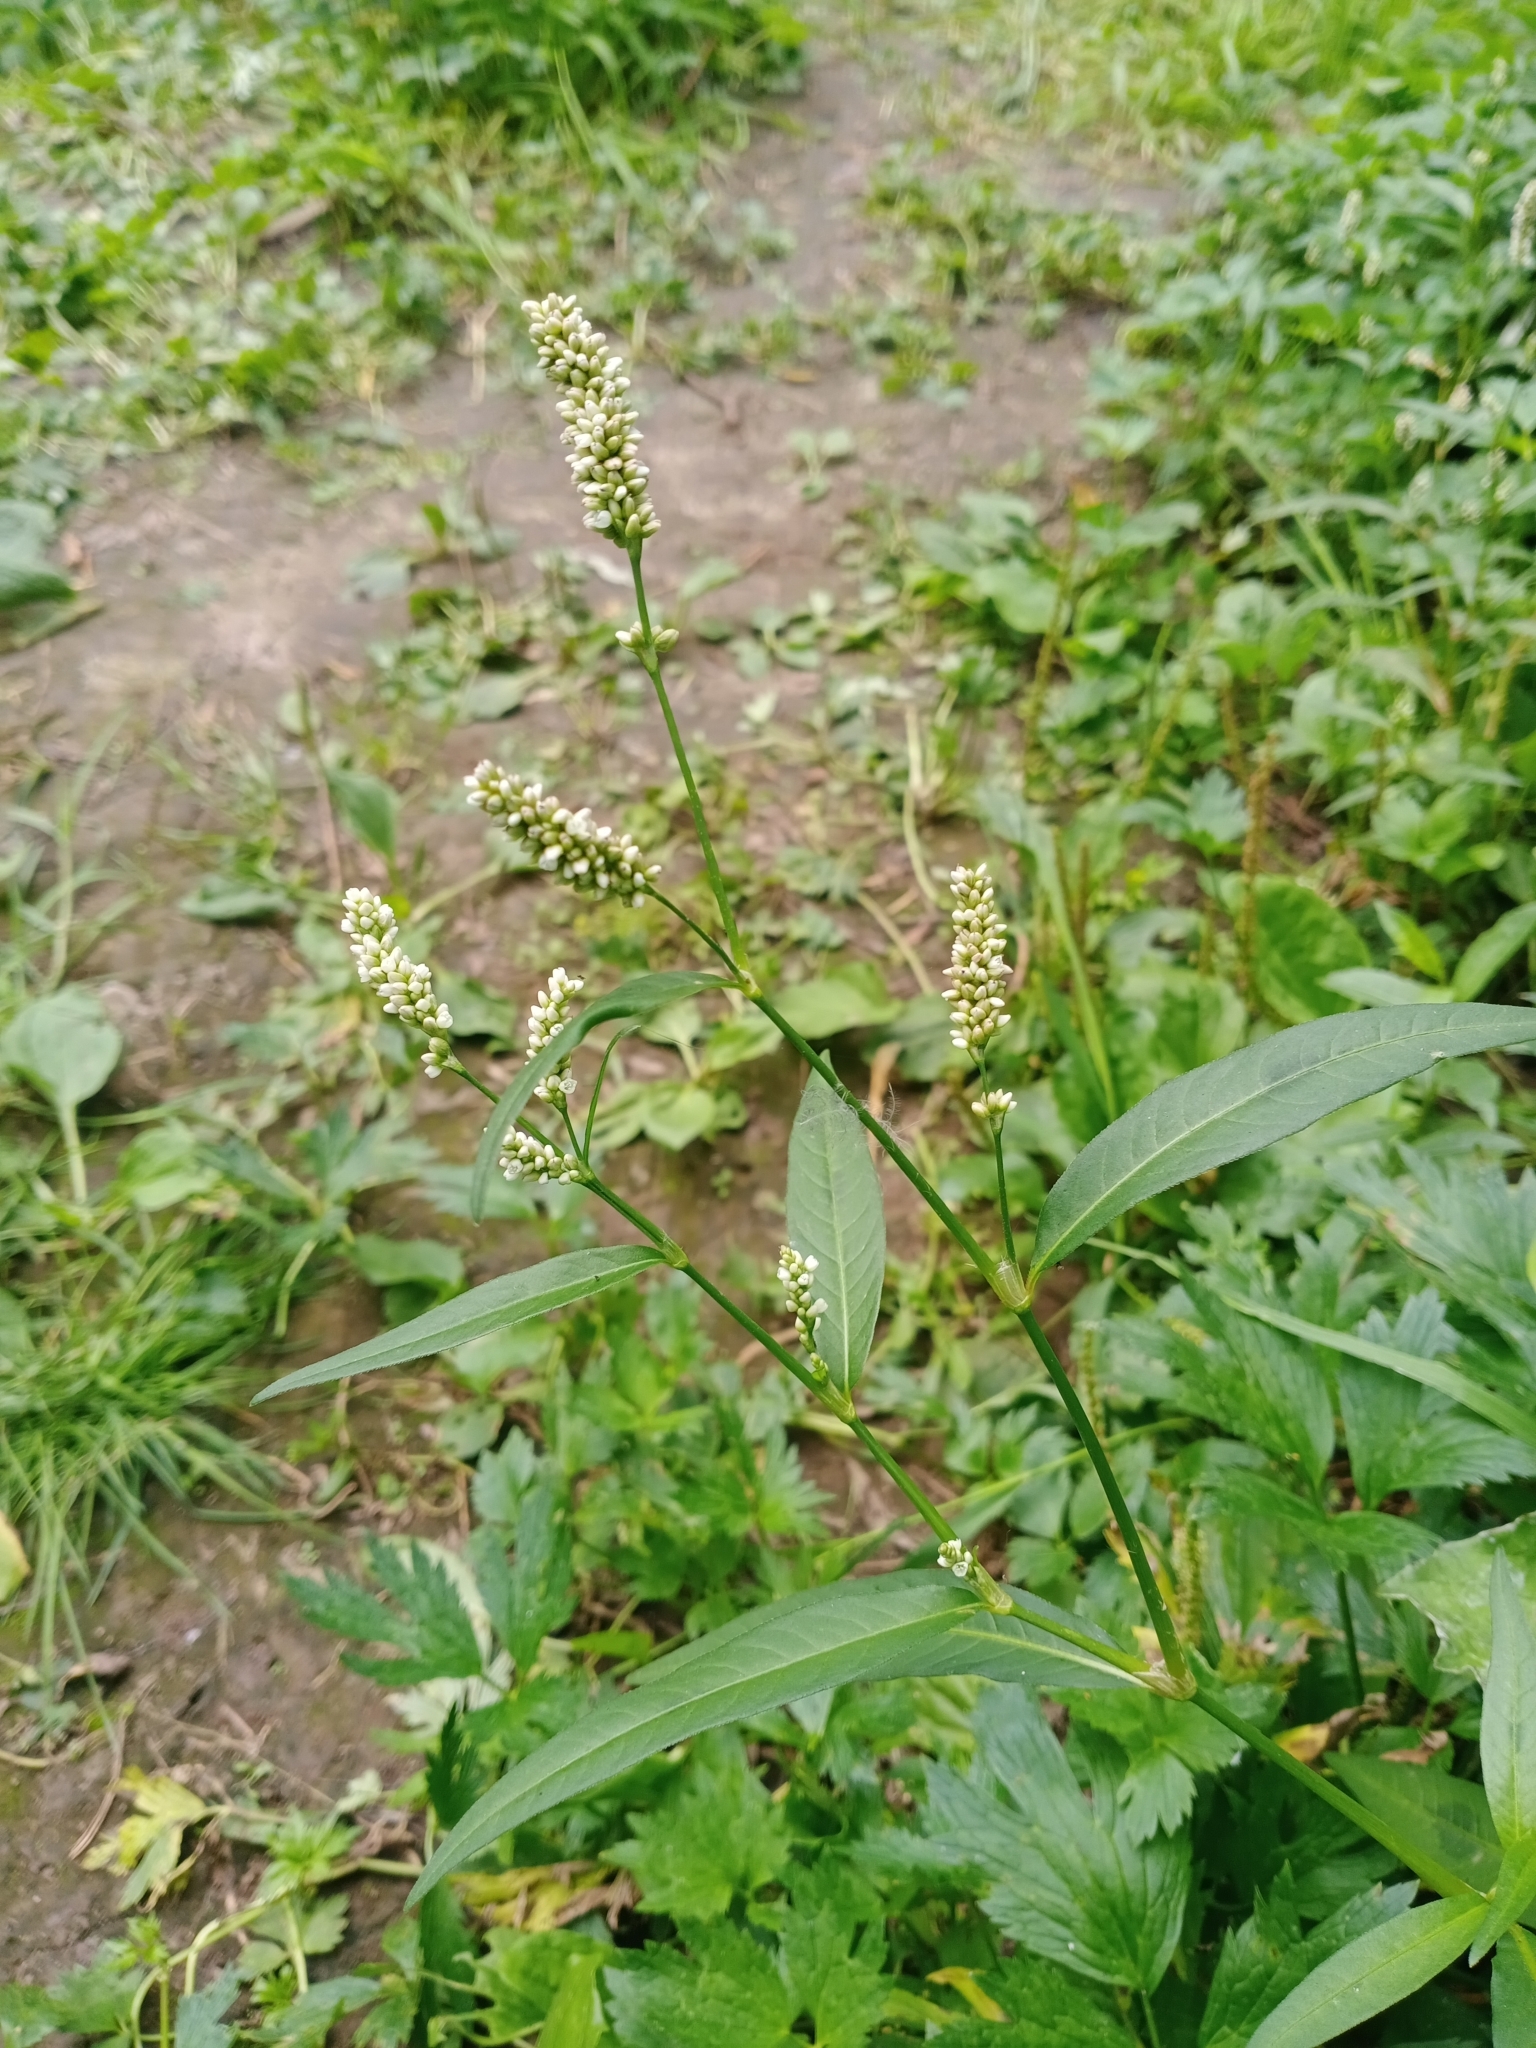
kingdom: Plantae
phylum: Tracheophyta
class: Magnoliopsida
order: Caryophyllales
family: Polygonaceae
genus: Persicaria
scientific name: Persicaria lapathifolia
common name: Curlytop knotweed
